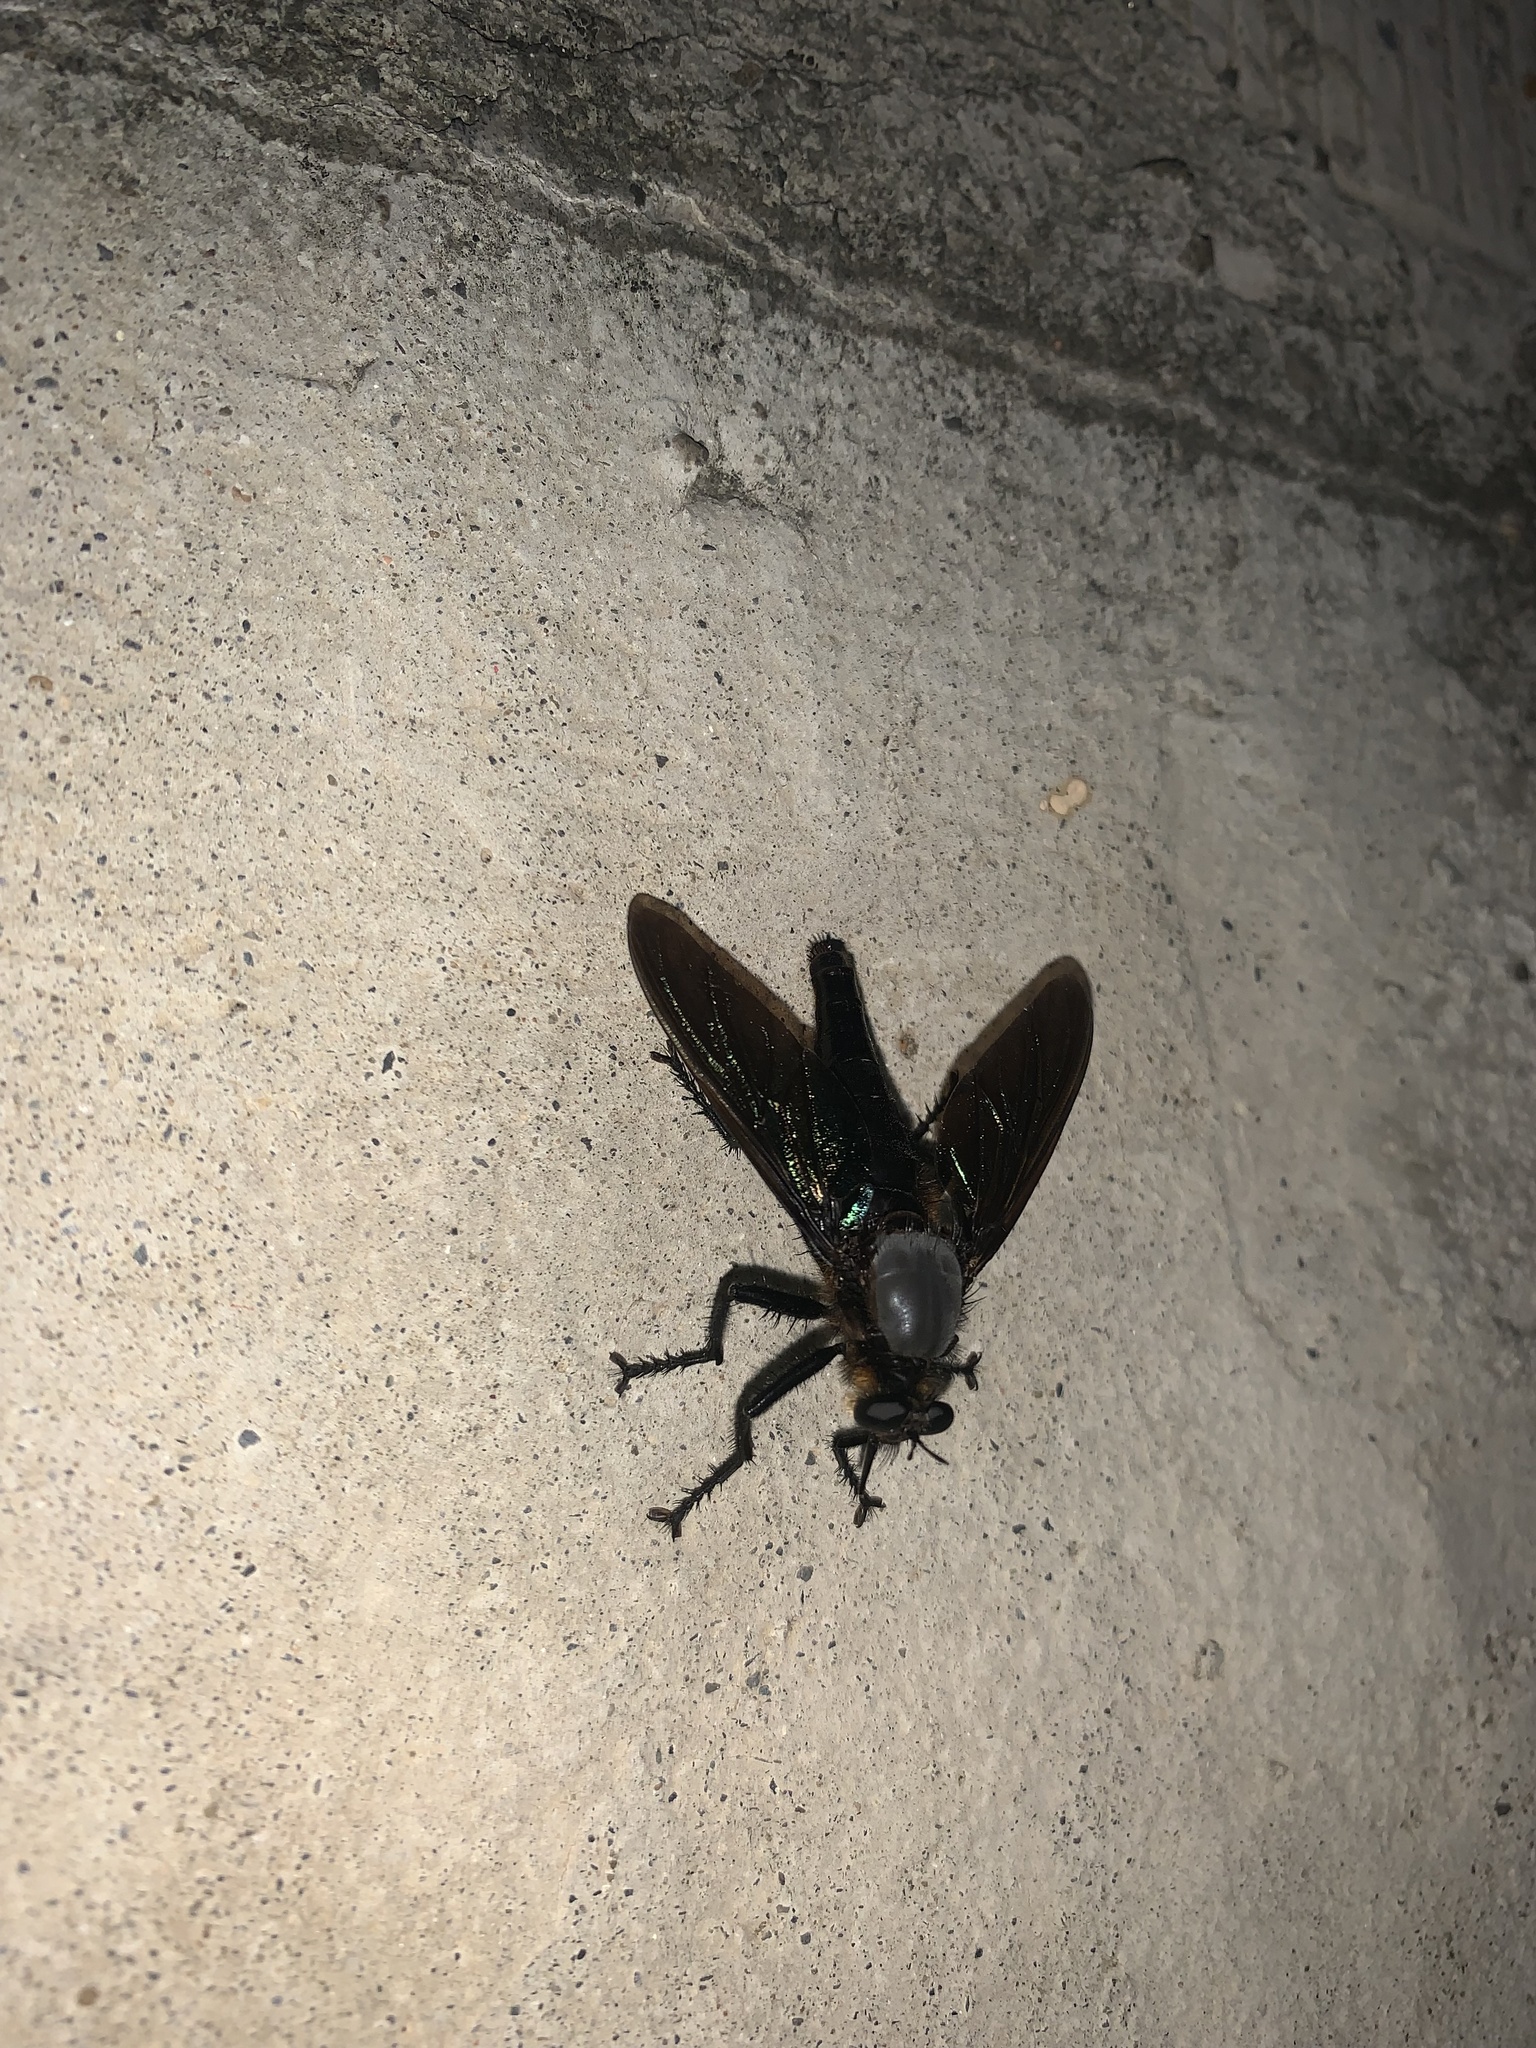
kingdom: Animalia
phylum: Arthropoda
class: Insecta
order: Diptera
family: Asilidae
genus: Microstylum
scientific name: Microstylum oberthurii
